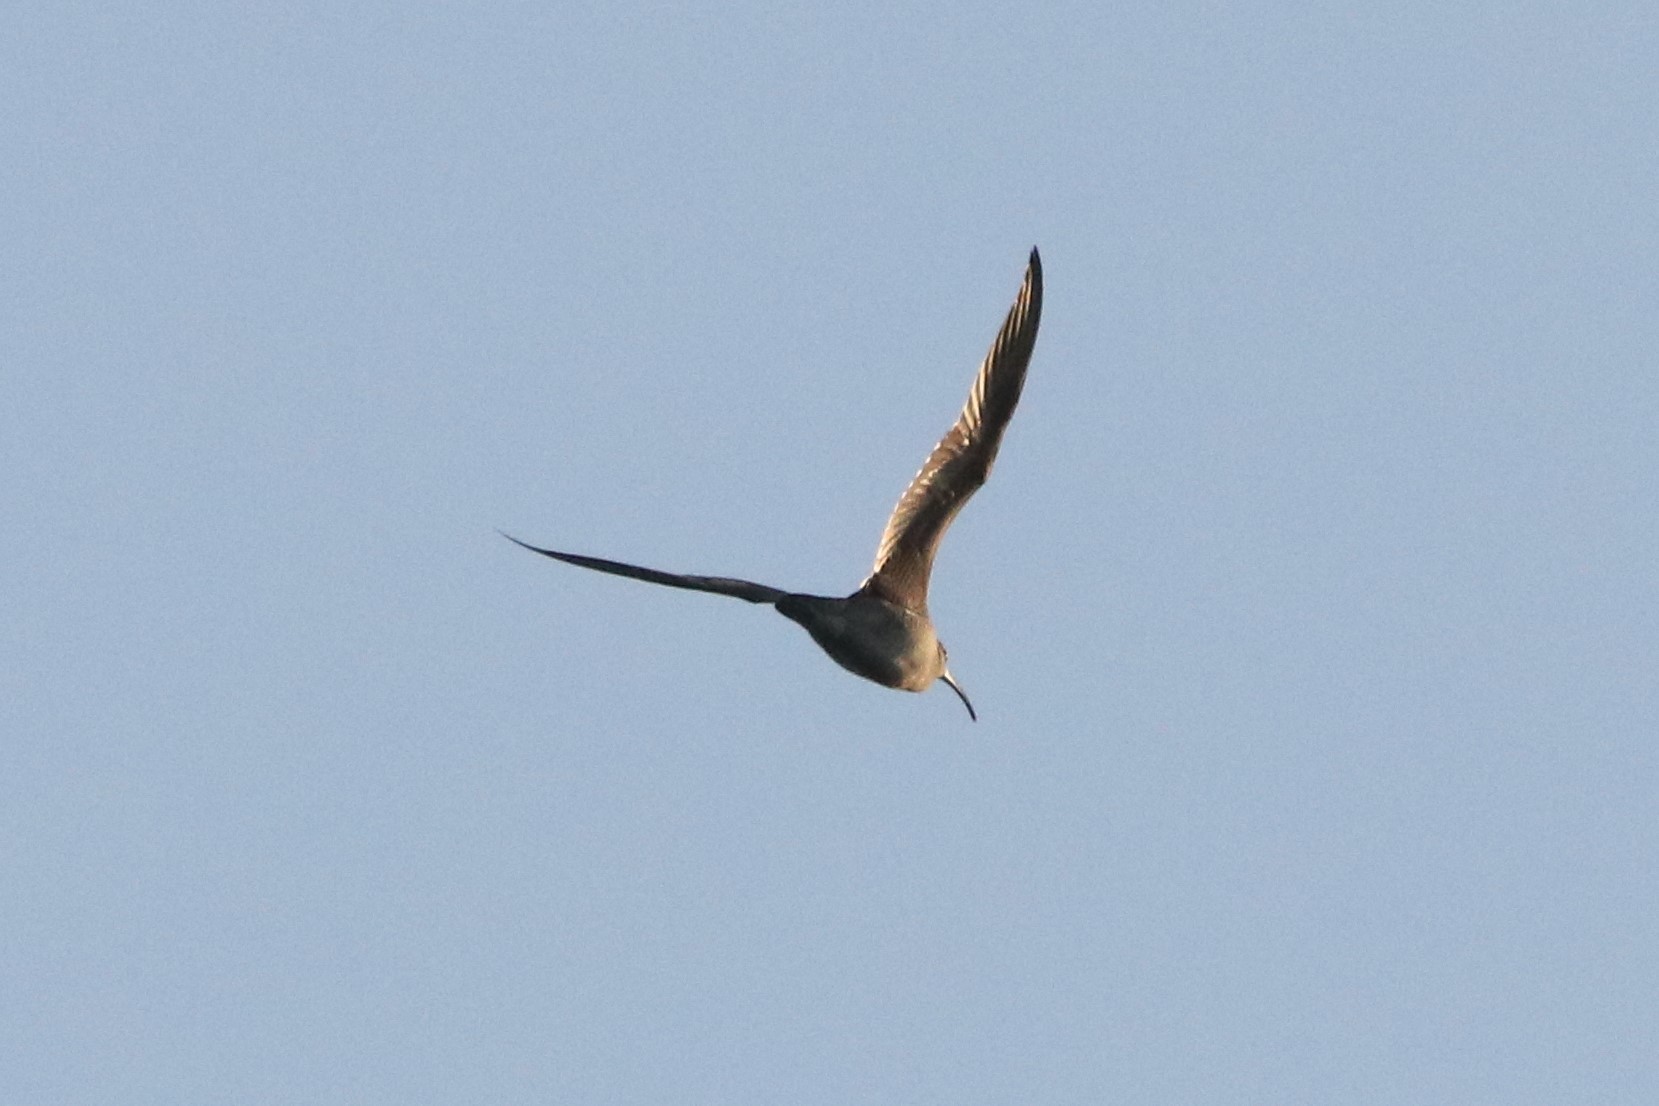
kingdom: Animalia
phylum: Chordata
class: Aves
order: Charadriiformes
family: Scolopacidae
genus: Numenius
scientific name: Numenius phaeopus
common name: Whimbrel
